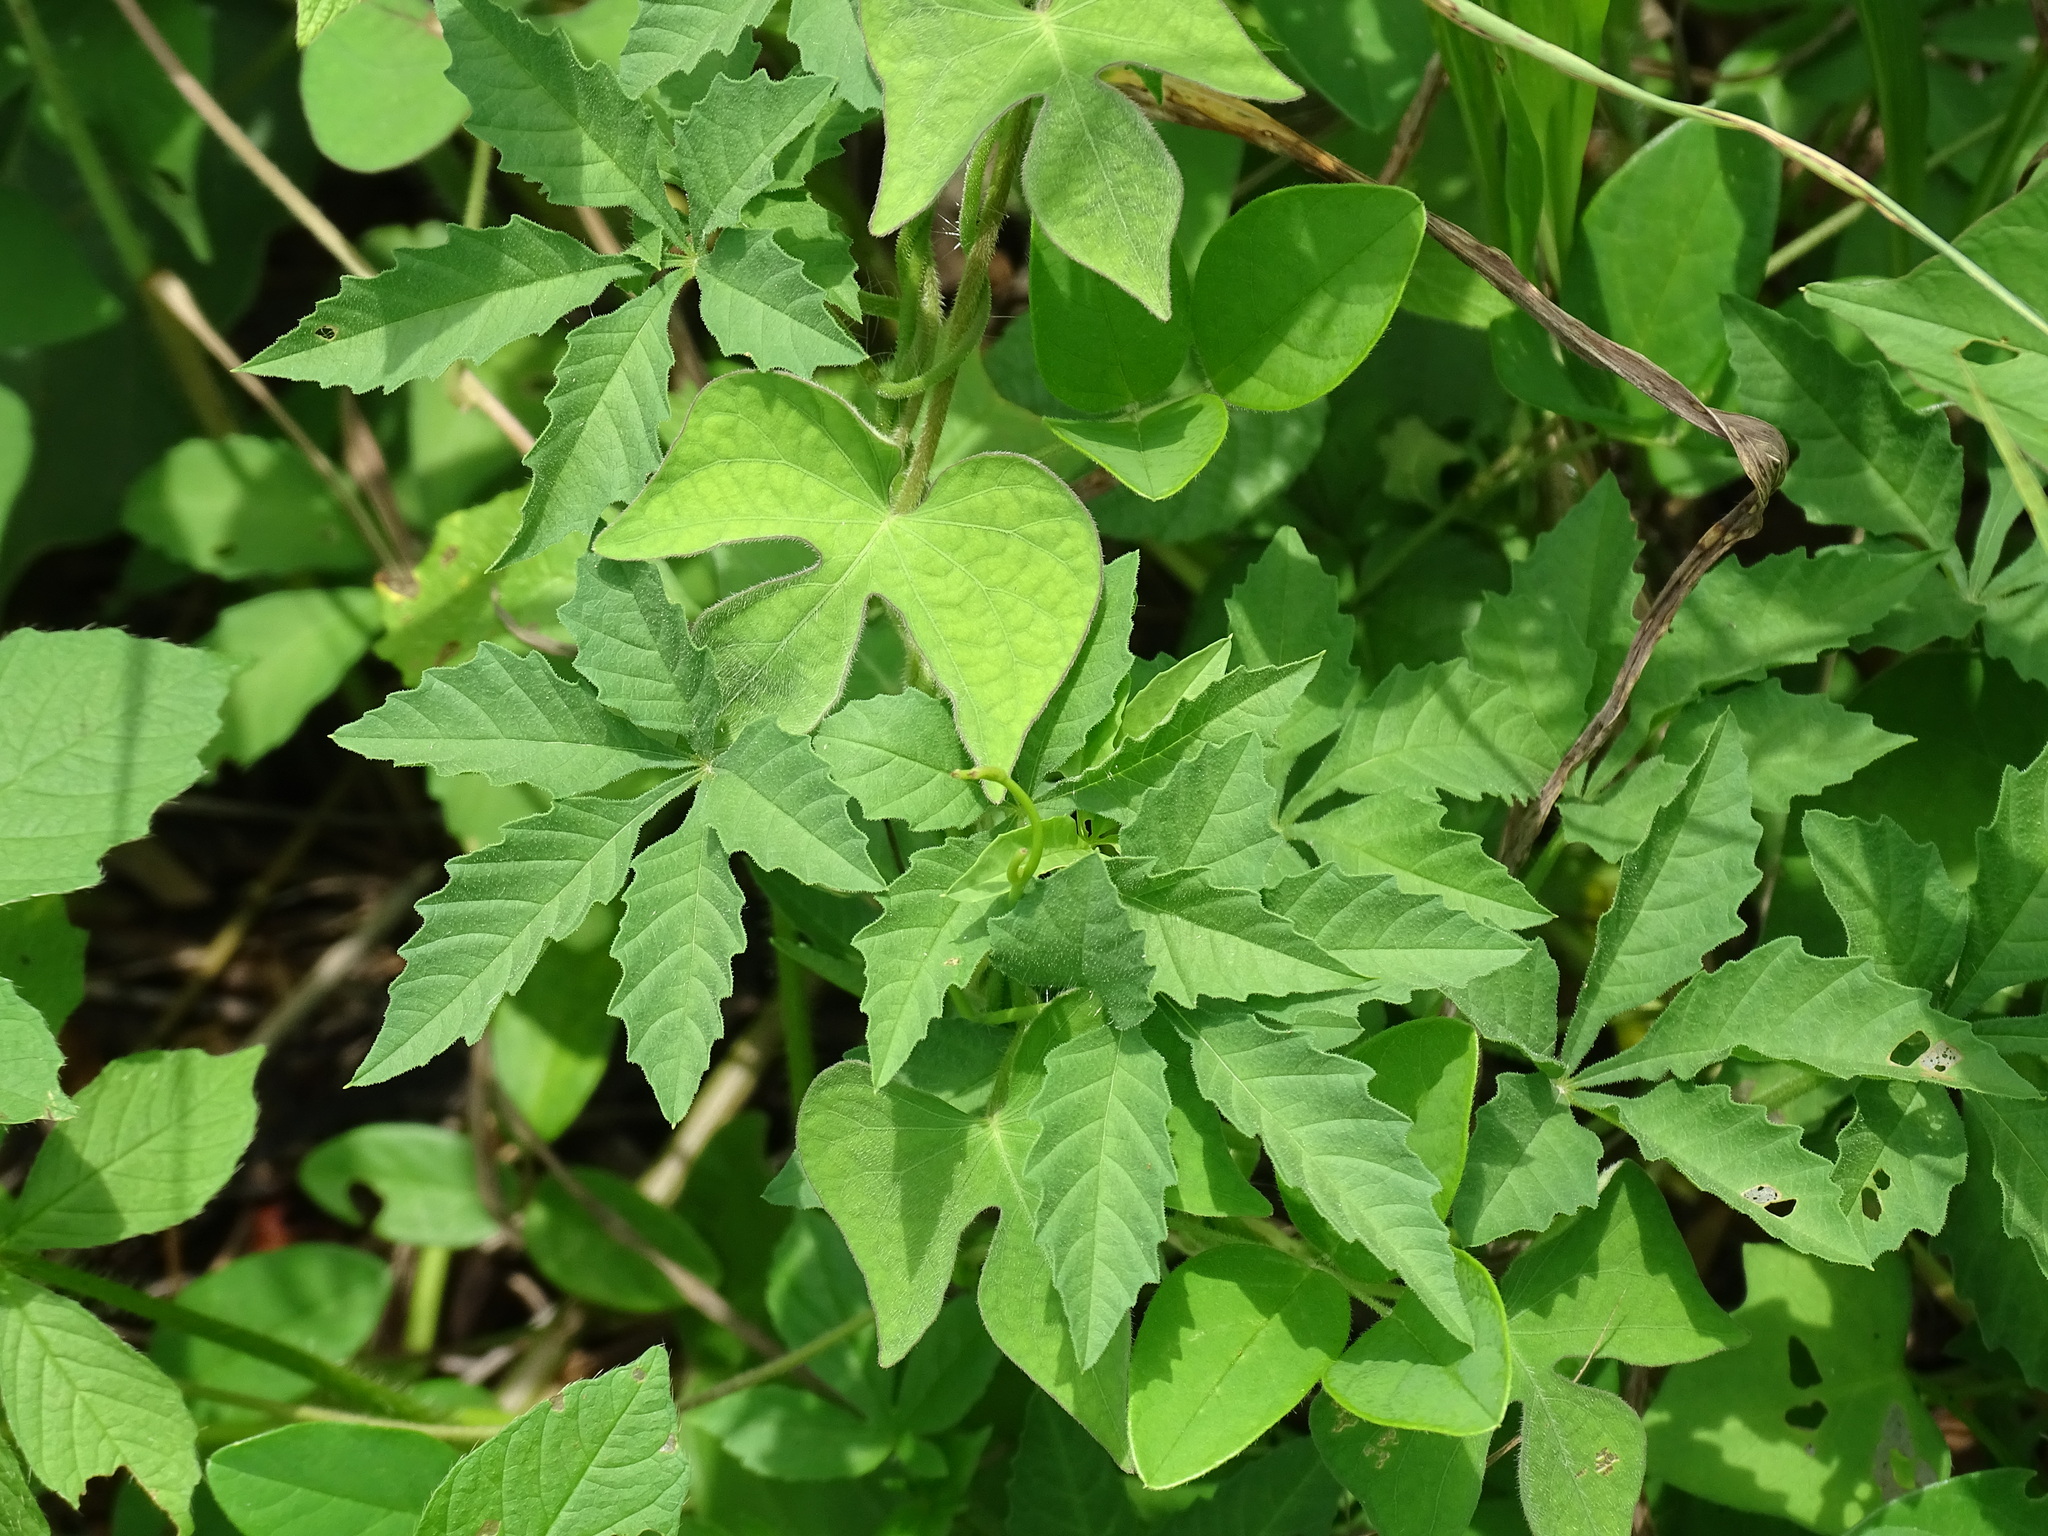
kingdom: Plantae
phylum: Tracheophyta
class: Magnoliopsida
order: Solanales
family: Convolvulaceae
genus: Distimake
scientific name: Distimake cissoides
